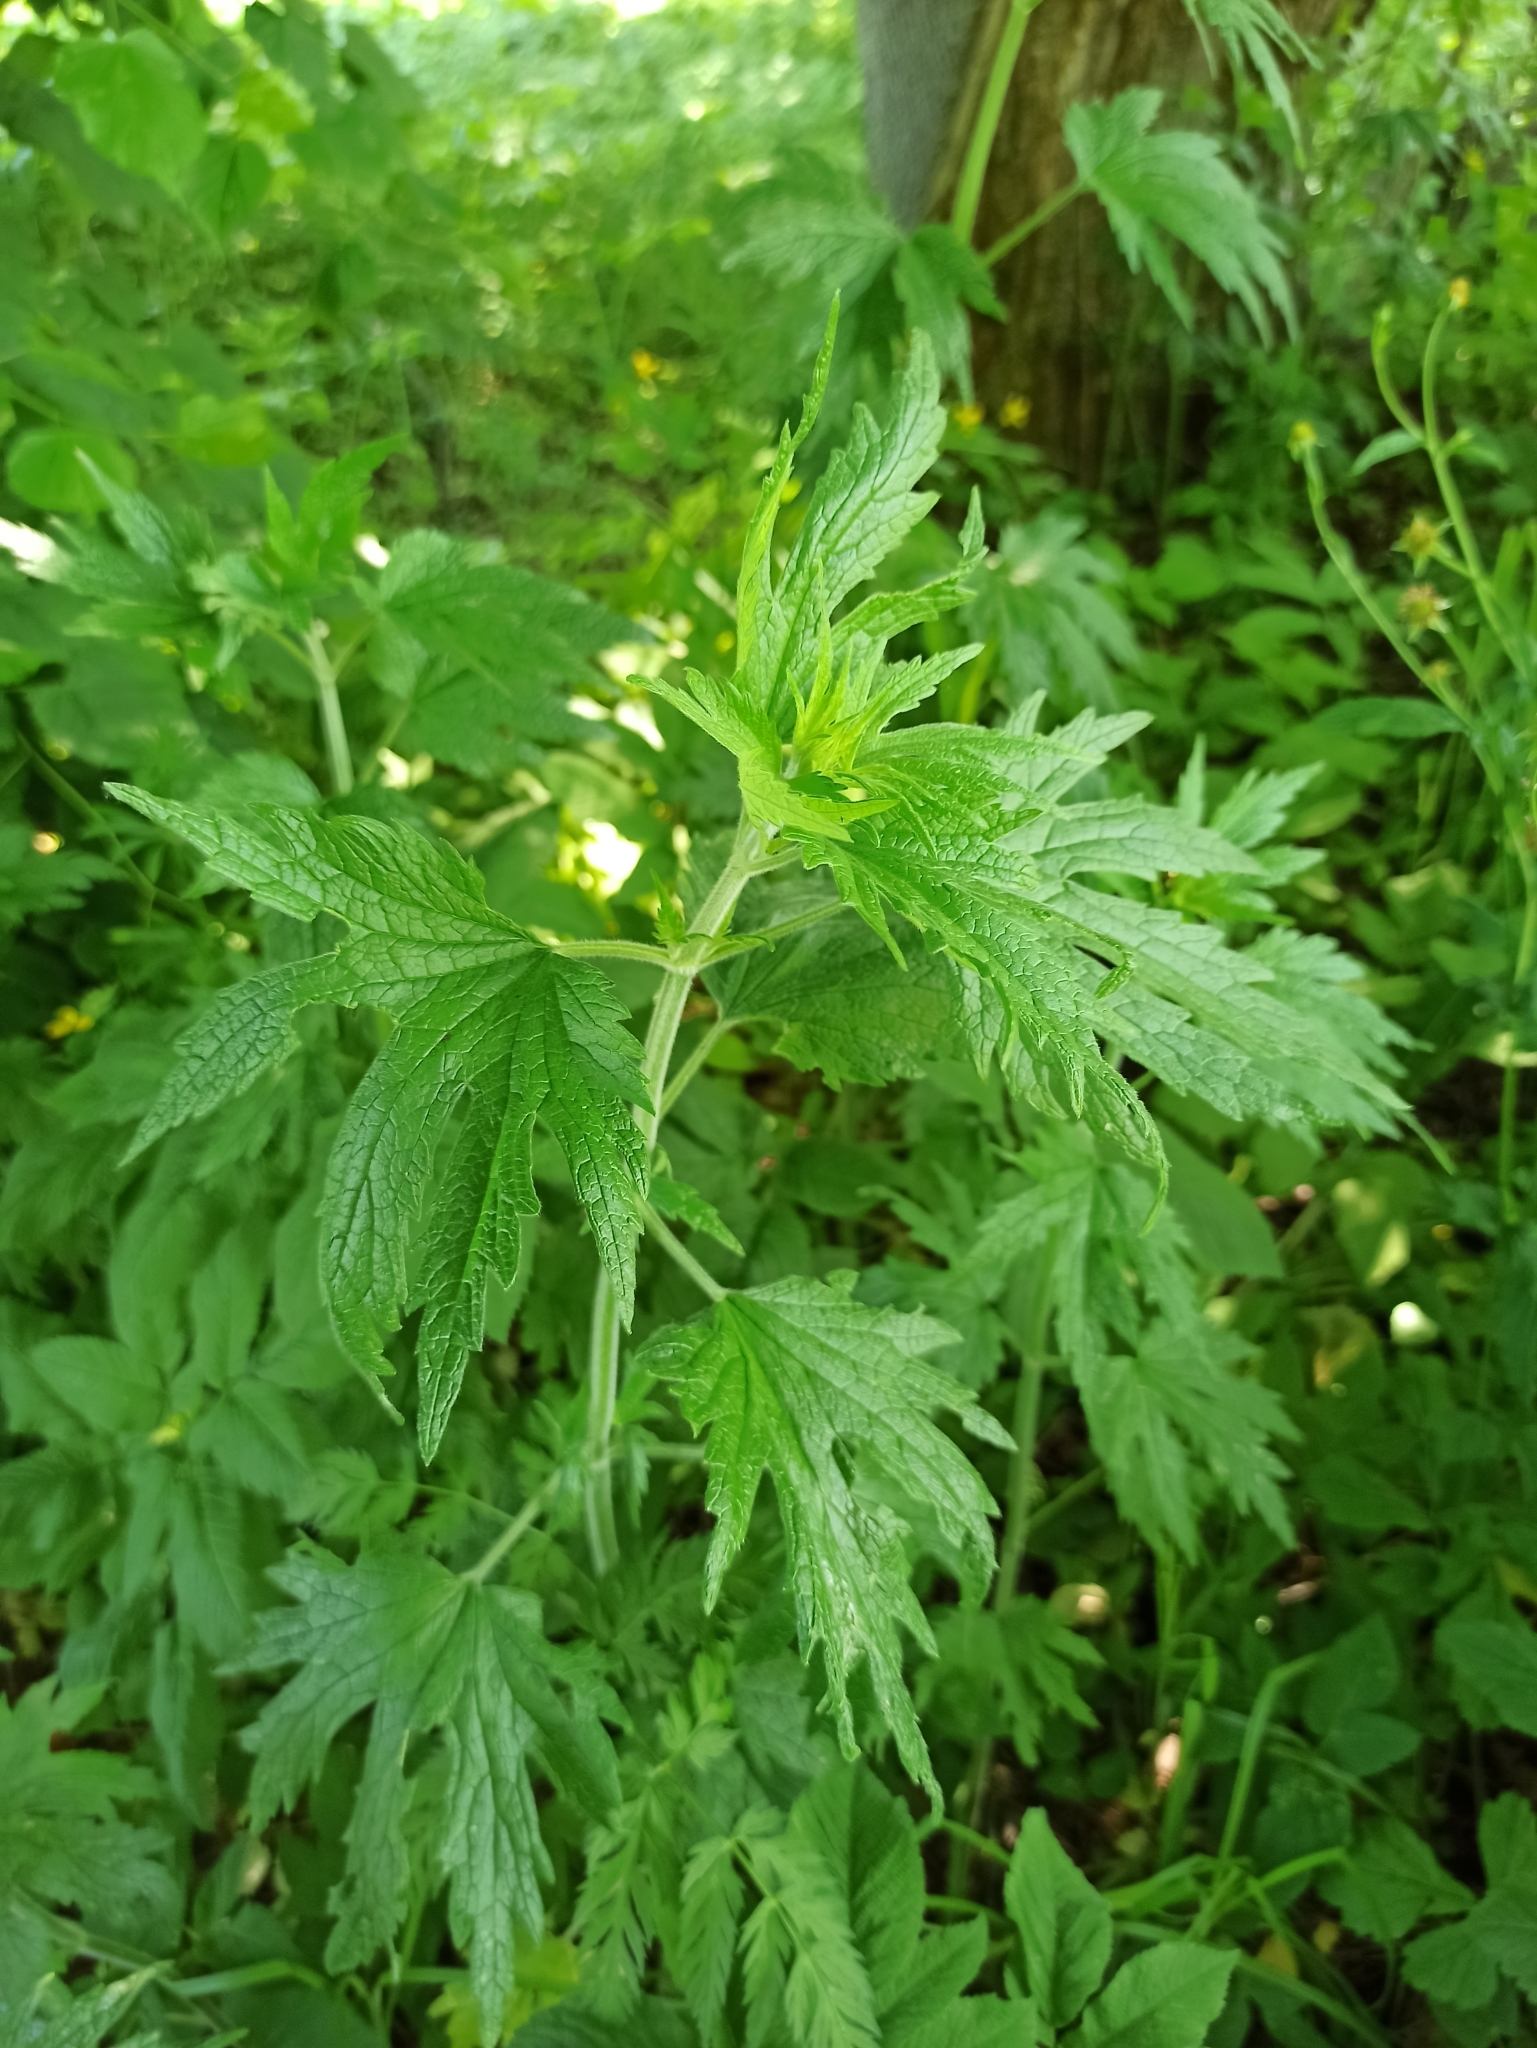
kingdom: Plantae
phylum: Tracheophyta
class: Magnoliopsida
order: Lamiales
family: Lamiaceae
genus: Leonurus
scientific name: Leonurus quinquelobatus
